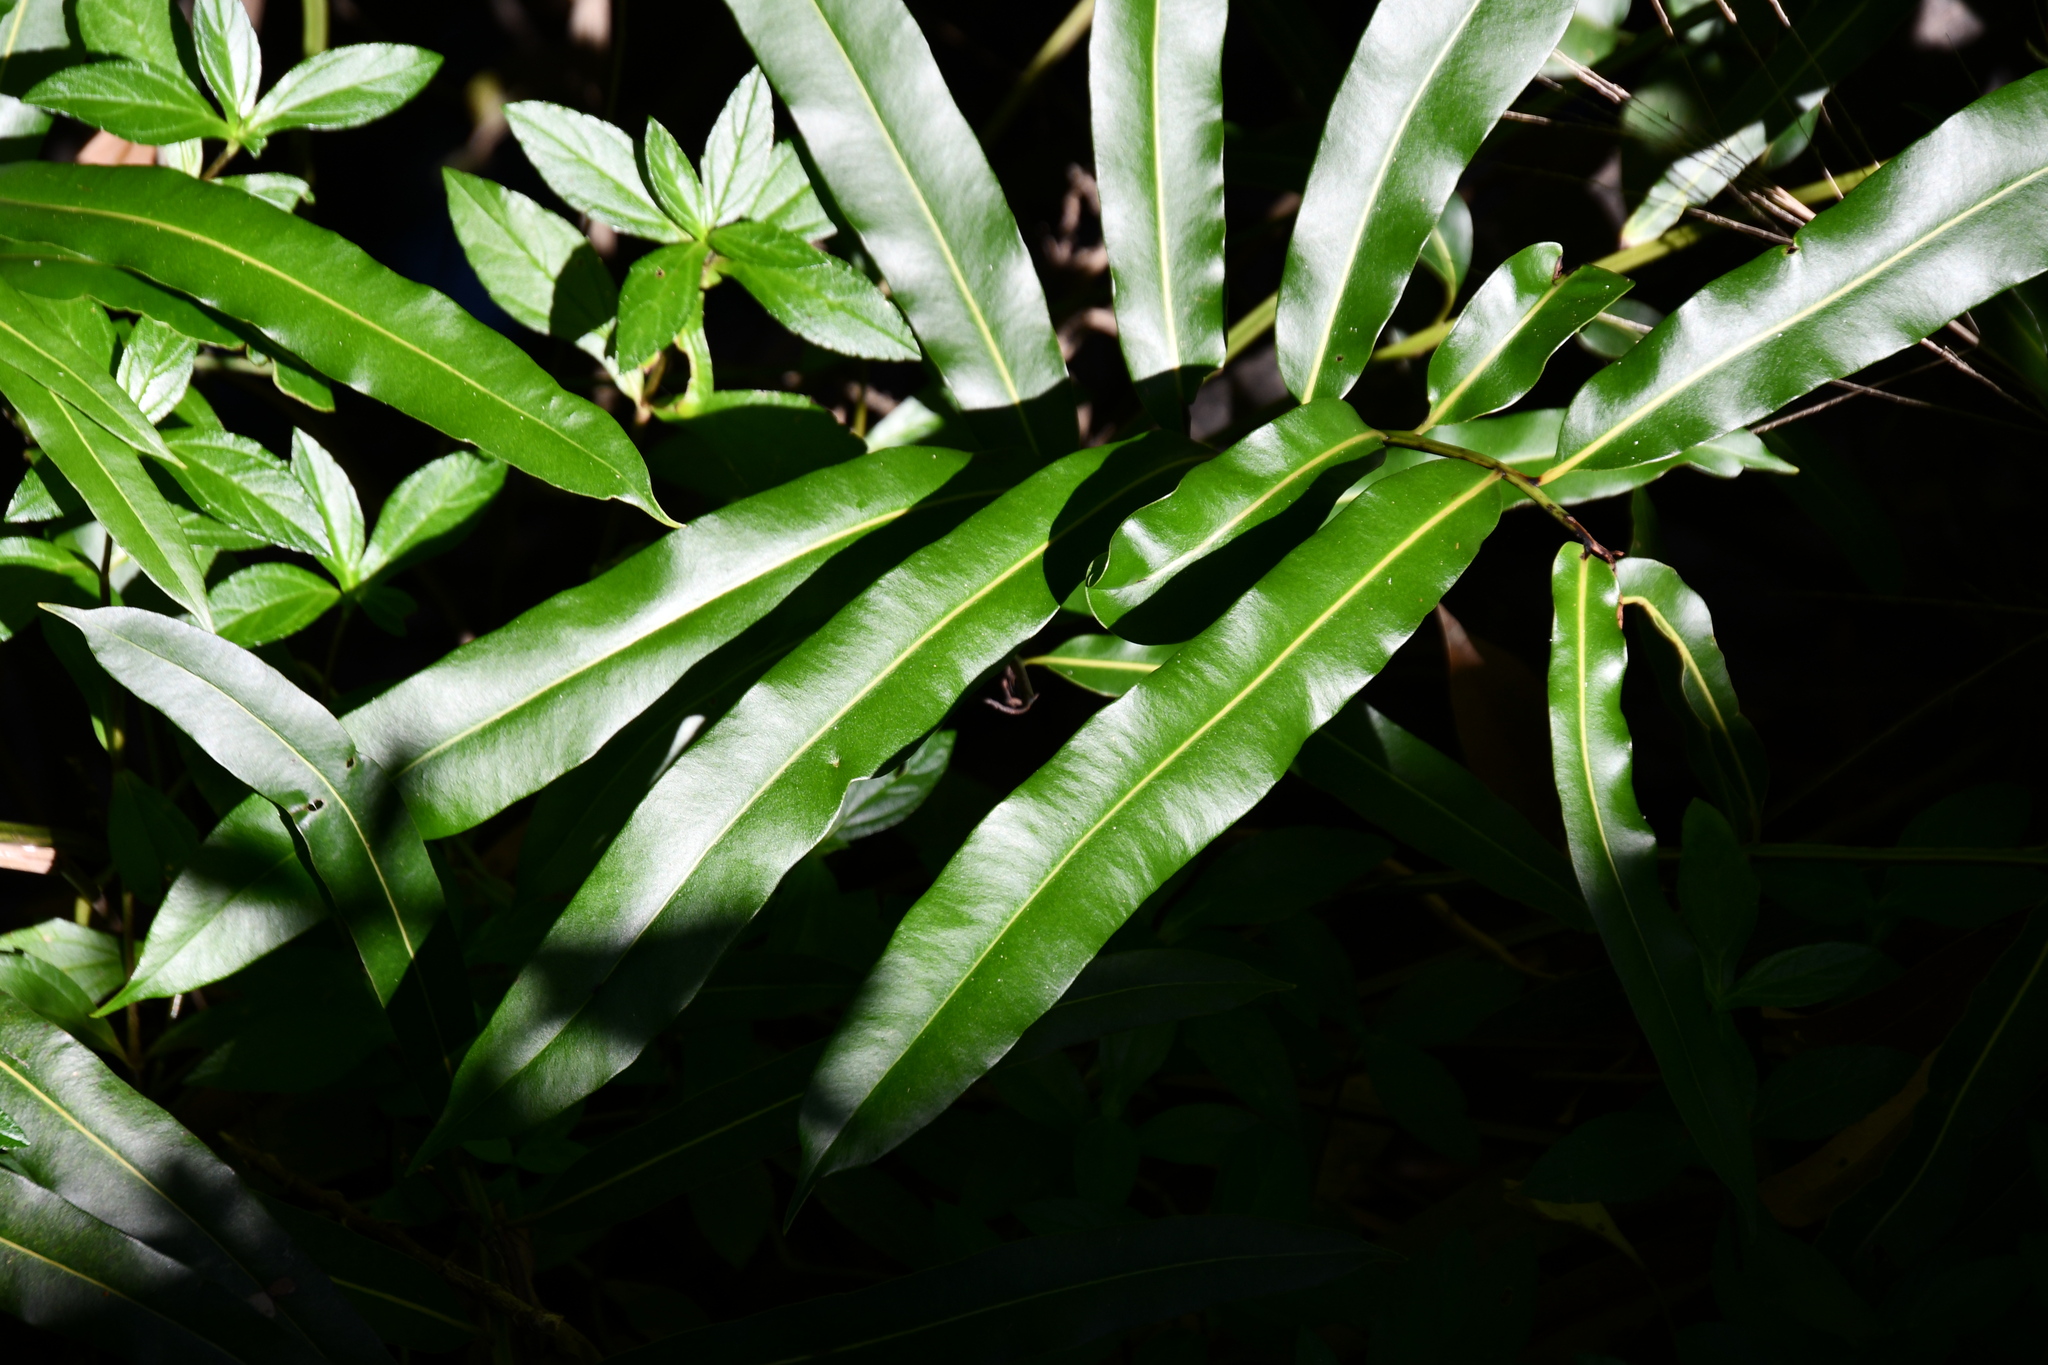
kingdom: Plantae
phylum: Tracheophyta
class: Polypodiopsida
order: Polypodiales
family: Pteridaceae
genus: Acrostichum
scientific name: Acrostichum speciosum
